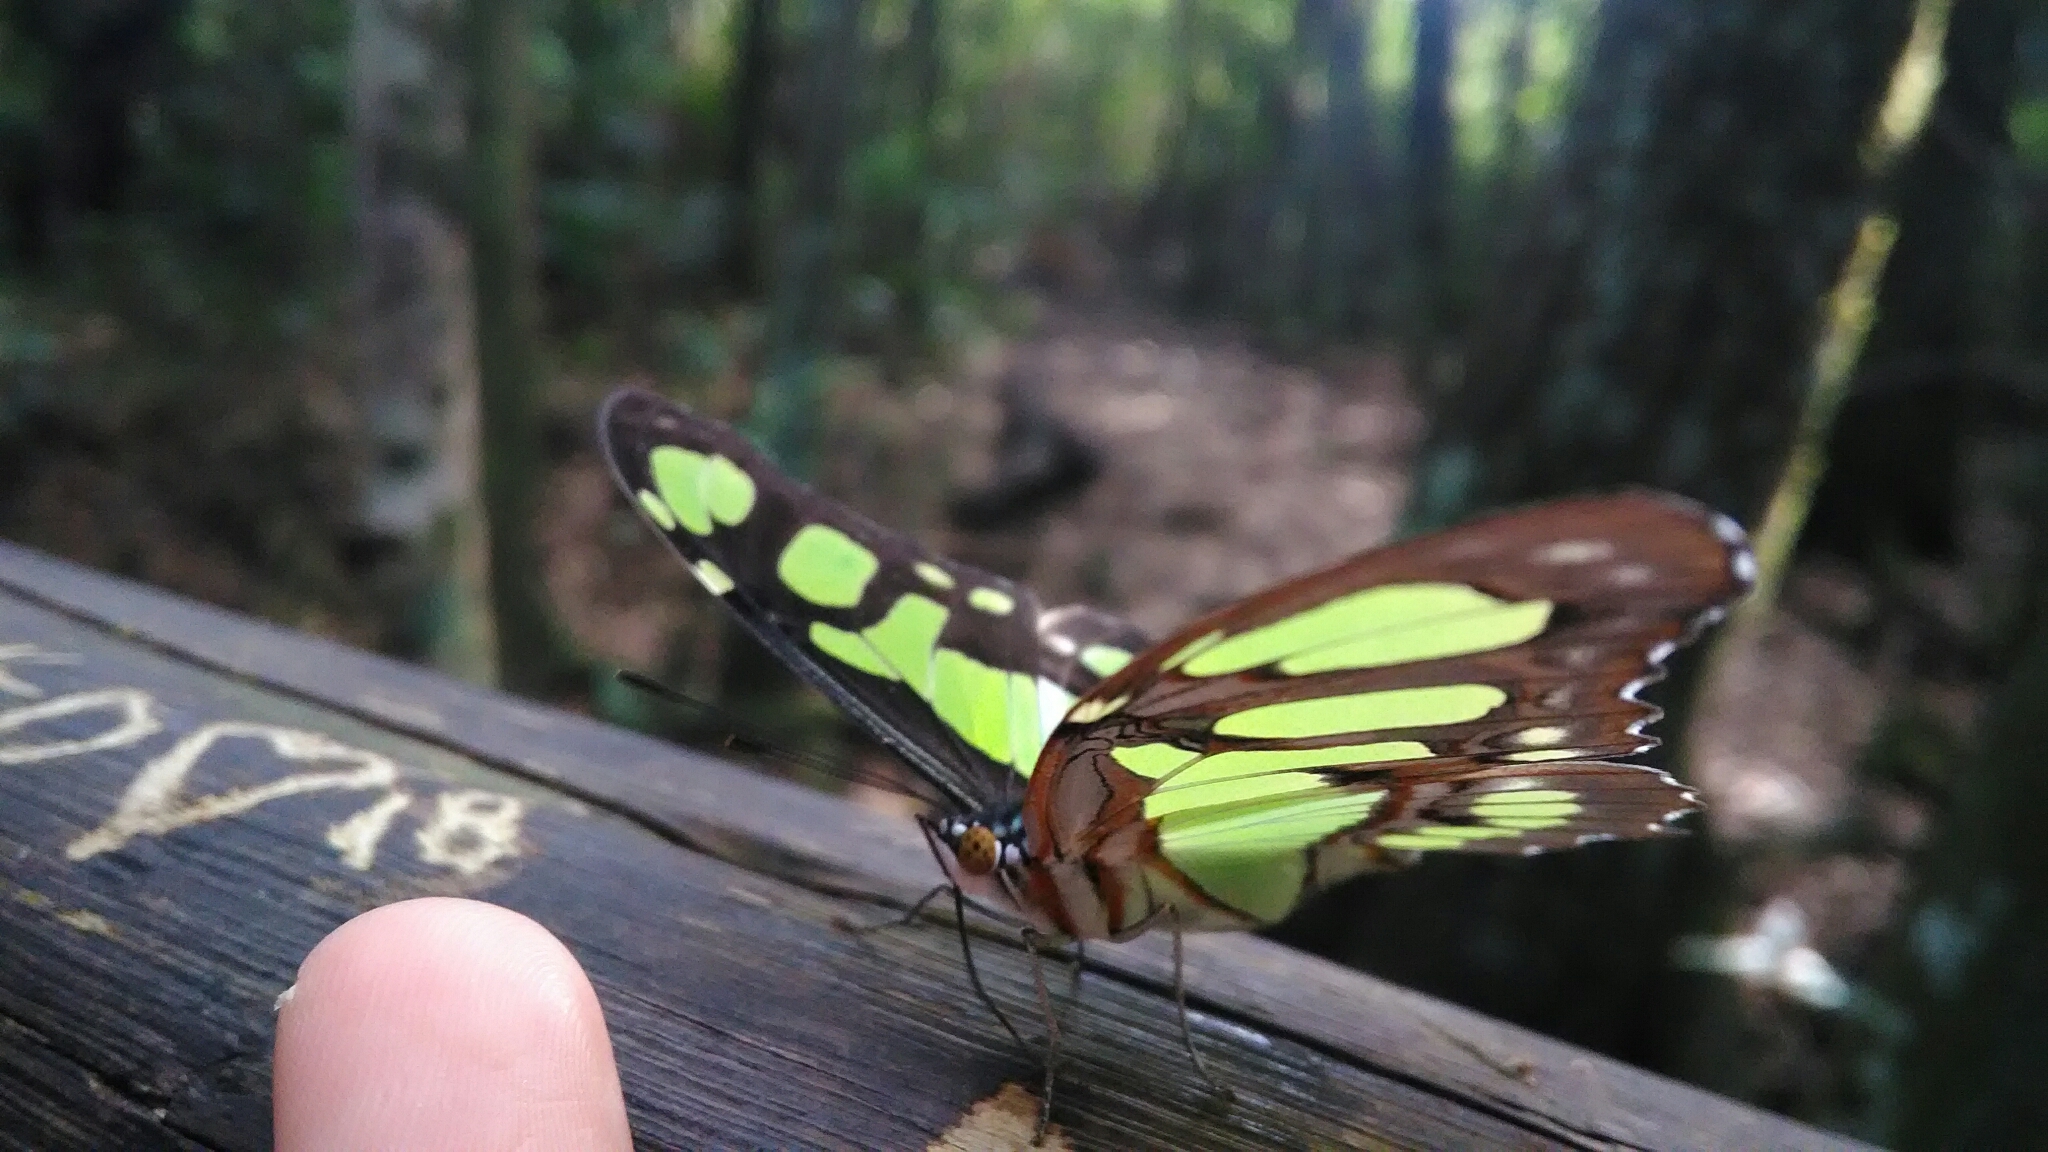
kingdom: Animalia
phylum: Arthropoda
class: Insecta
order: Lepidoptera
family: Nymphalidae
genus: Siproeta
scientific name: Siproeta stelenes
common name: Malachite
